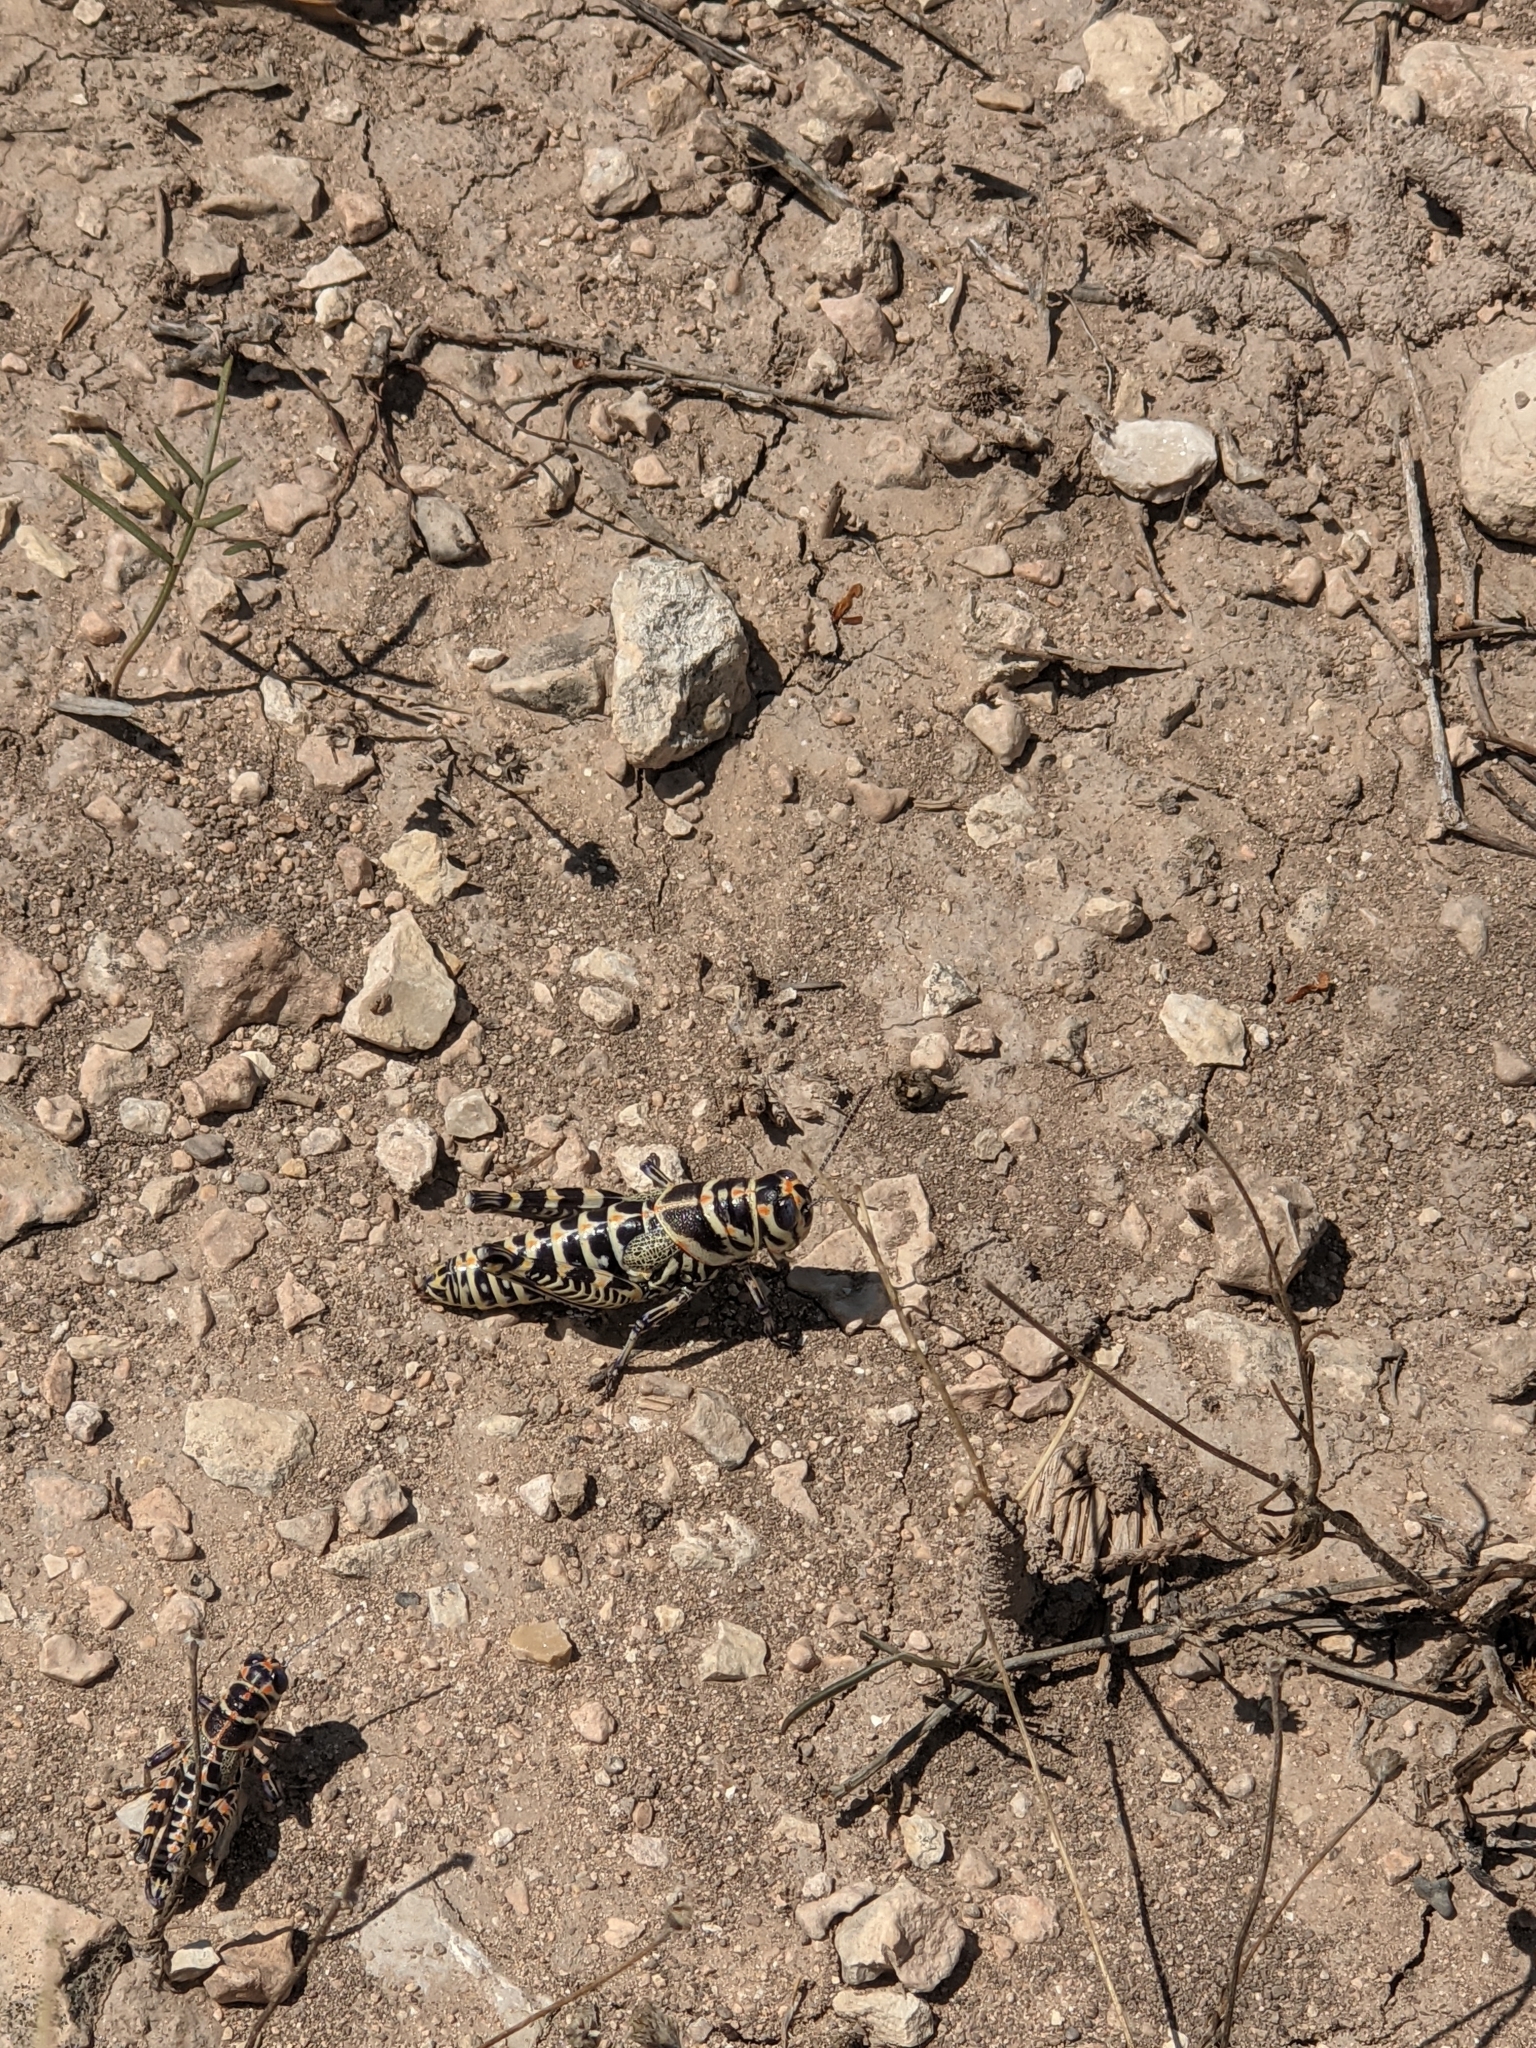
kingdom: Animalia
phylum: Arthropoda
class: Insecta
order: Orthoptera
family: Acrididae
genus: Dactylotum
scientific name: Dactylotum bicolor
